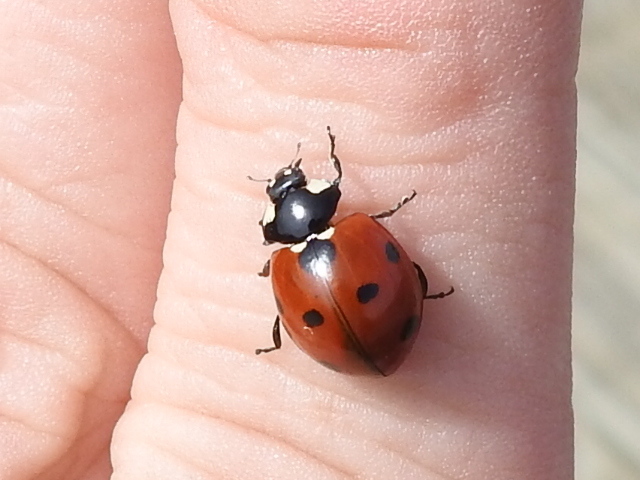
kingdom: Animalia
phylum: Arthropoda
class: Insecta
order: Coleoptera
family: Coccinellidae
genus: Coccinella
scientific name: Coccinella septempunctata
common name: Sevenspotted lady beetle
